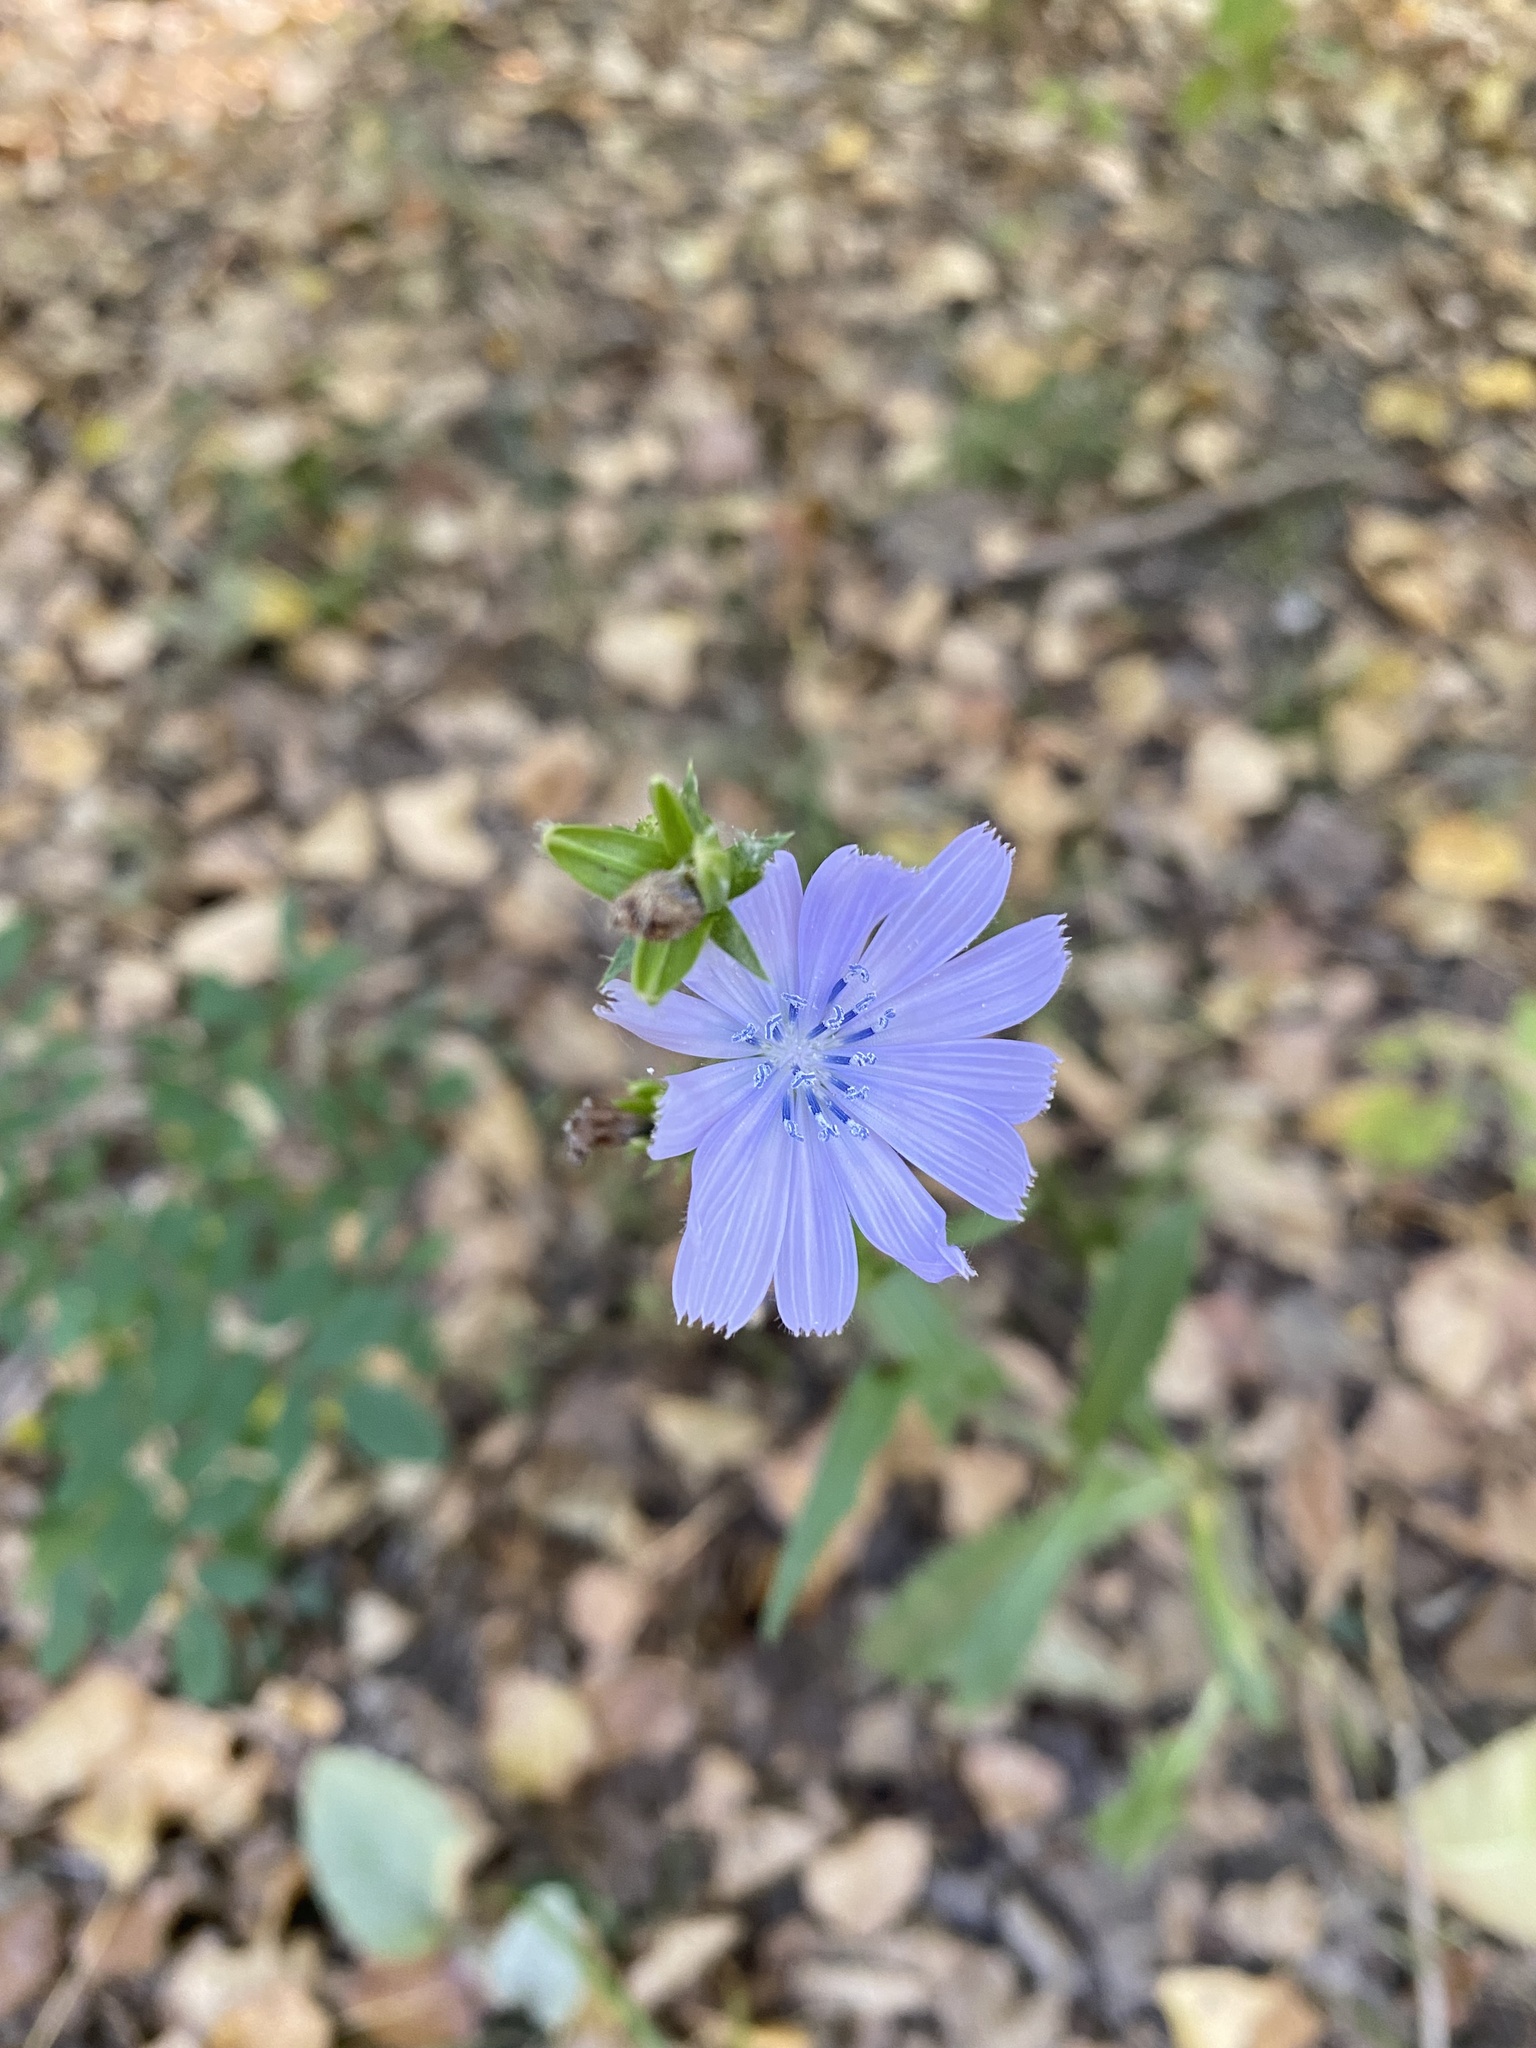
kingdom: Plantae
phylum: Tracheophyta
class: Magnoliopsida
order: Asterales
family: Asteraceae
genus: Cichorium
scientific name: Cichorium intybus
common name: Chicory
